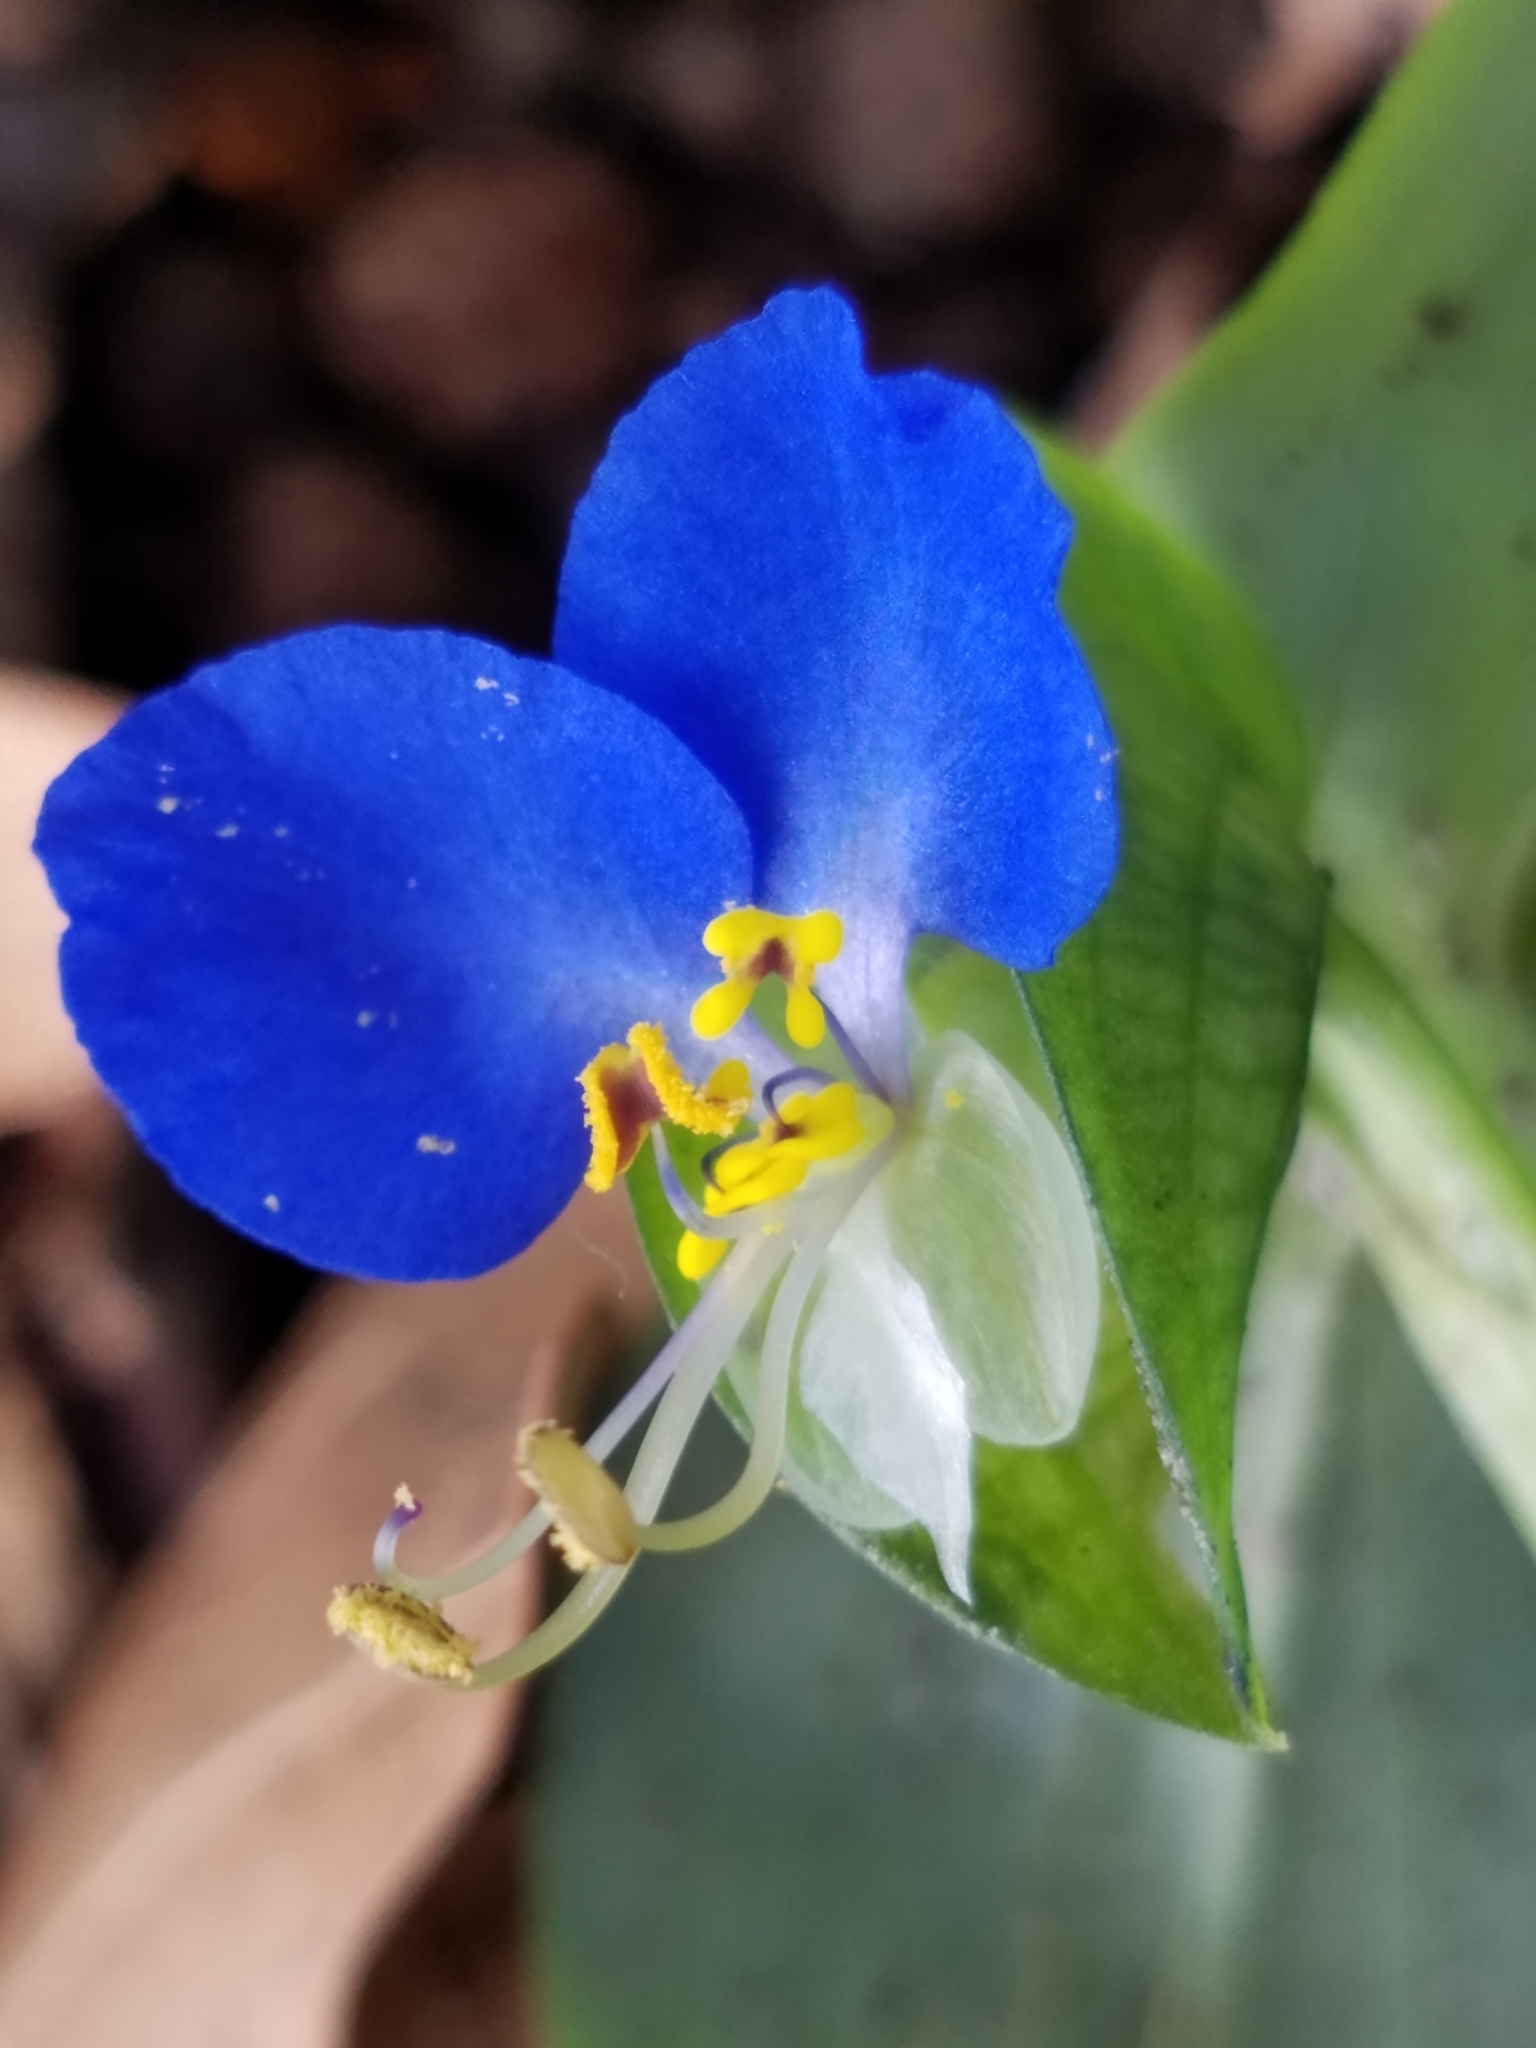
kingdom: Plantae
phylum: Tracheophyta
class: Liliopsida
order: Commelinales
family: Commelinaceae
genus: Commelina
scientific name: Commelina communis
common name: Asiatic dayflower
